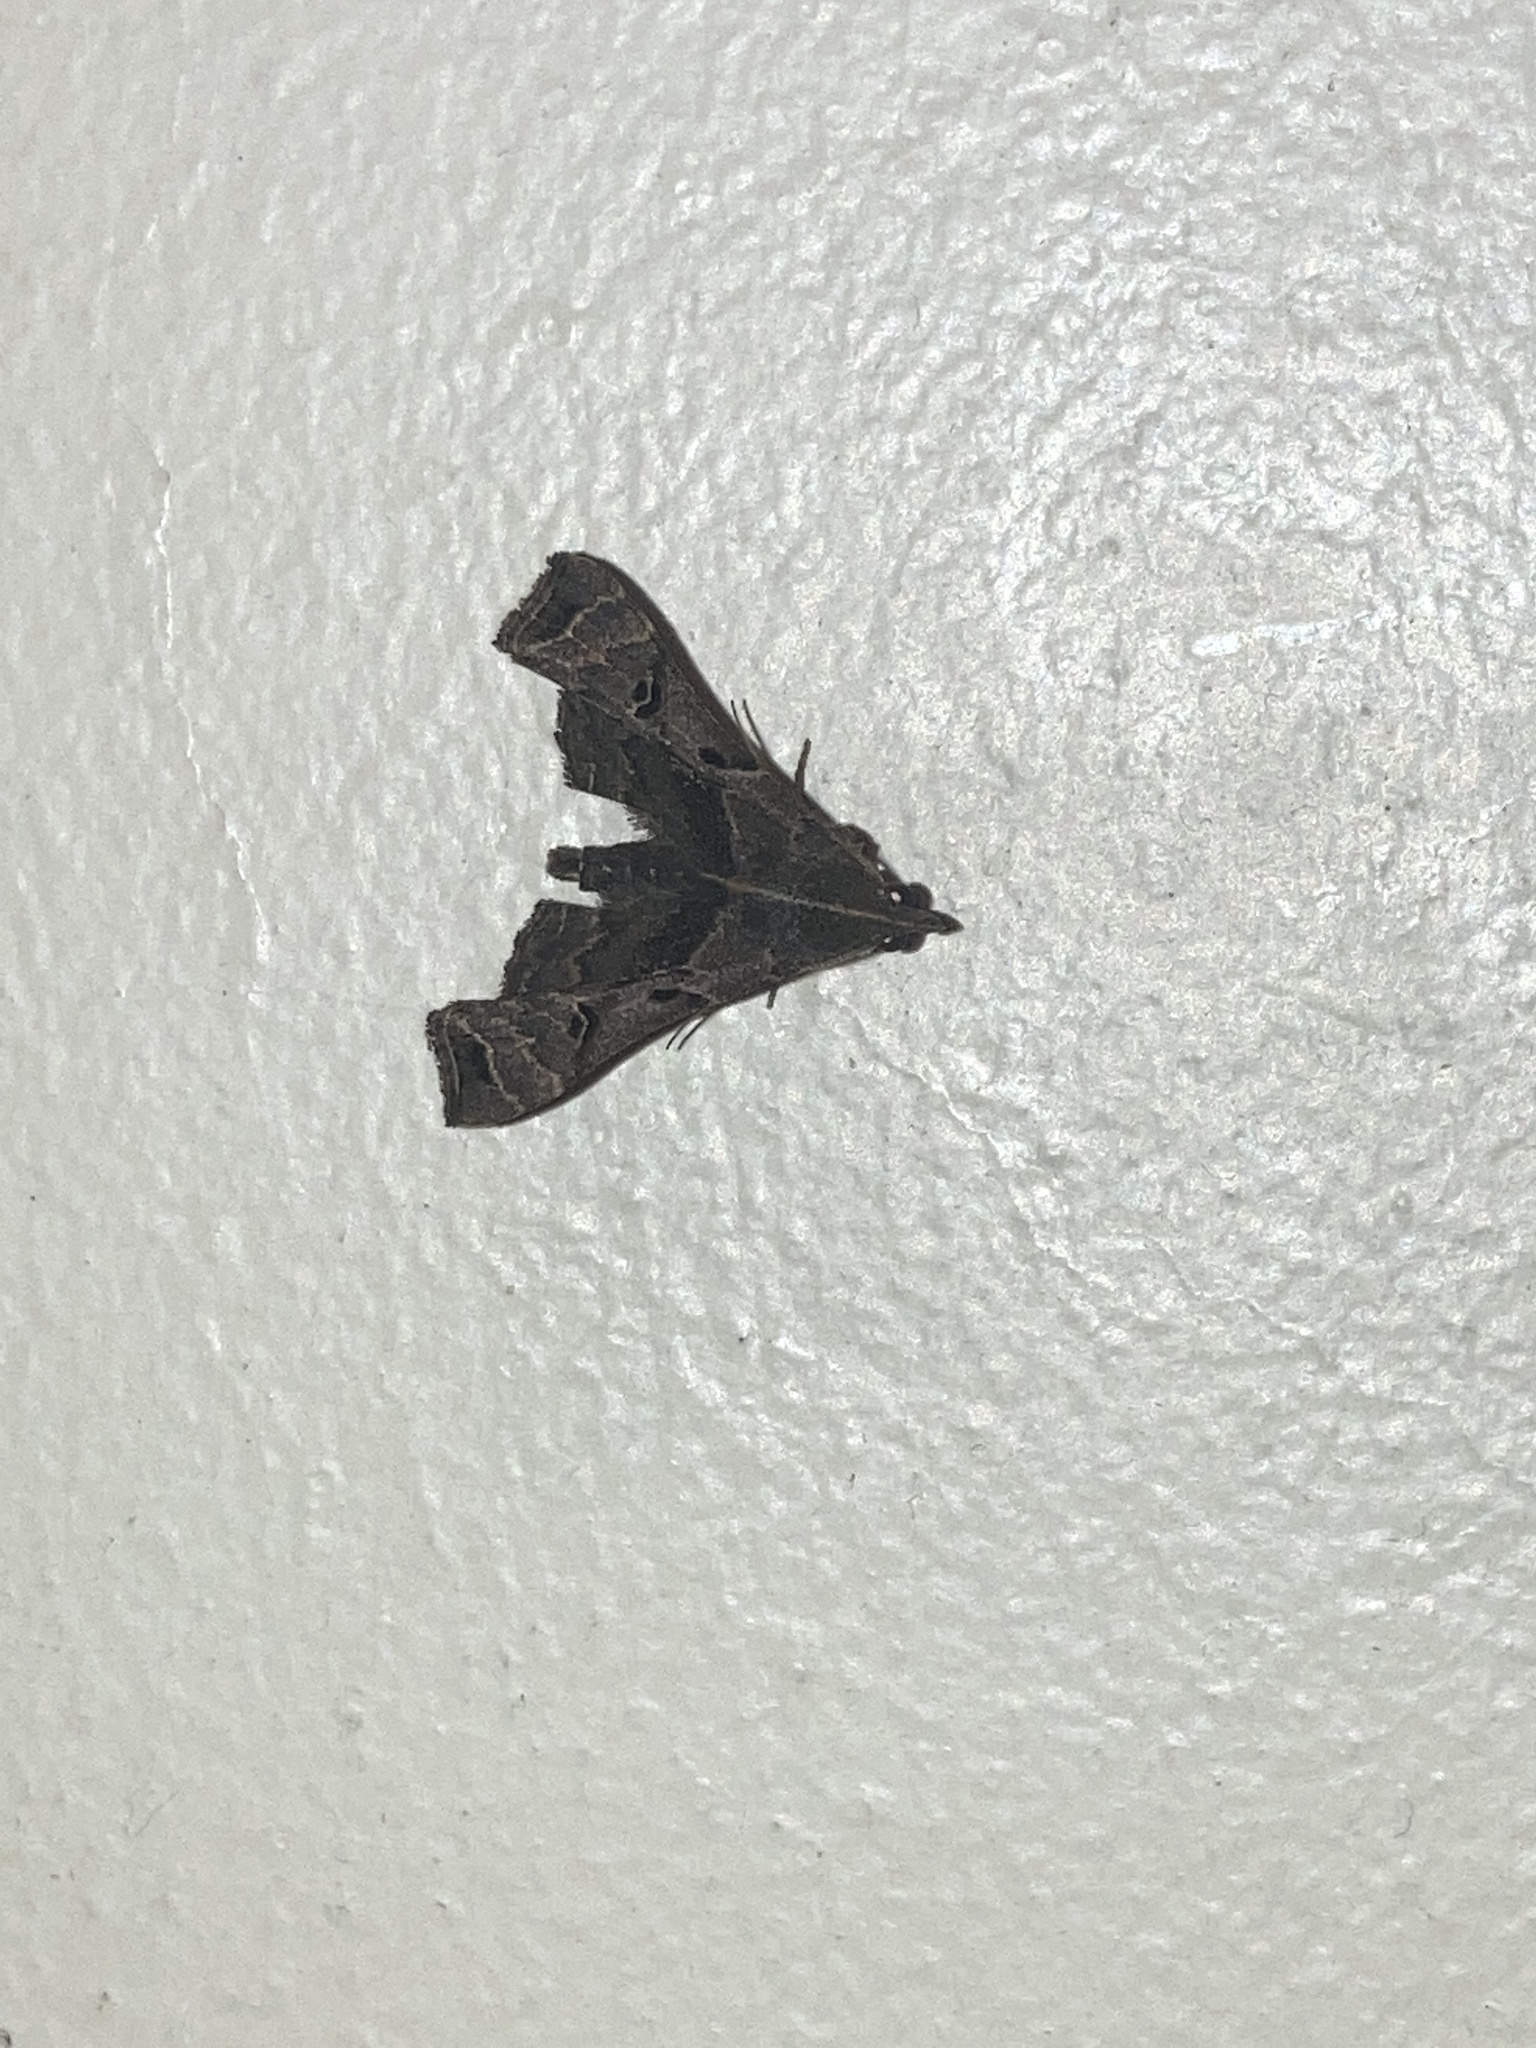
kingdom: Animalia
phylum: Arthropoda
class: Insecta
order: Lepidoptera
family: Erebidae
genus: Palthis
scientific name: Palthis asopialis
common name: Faint-spotted palthis moth
